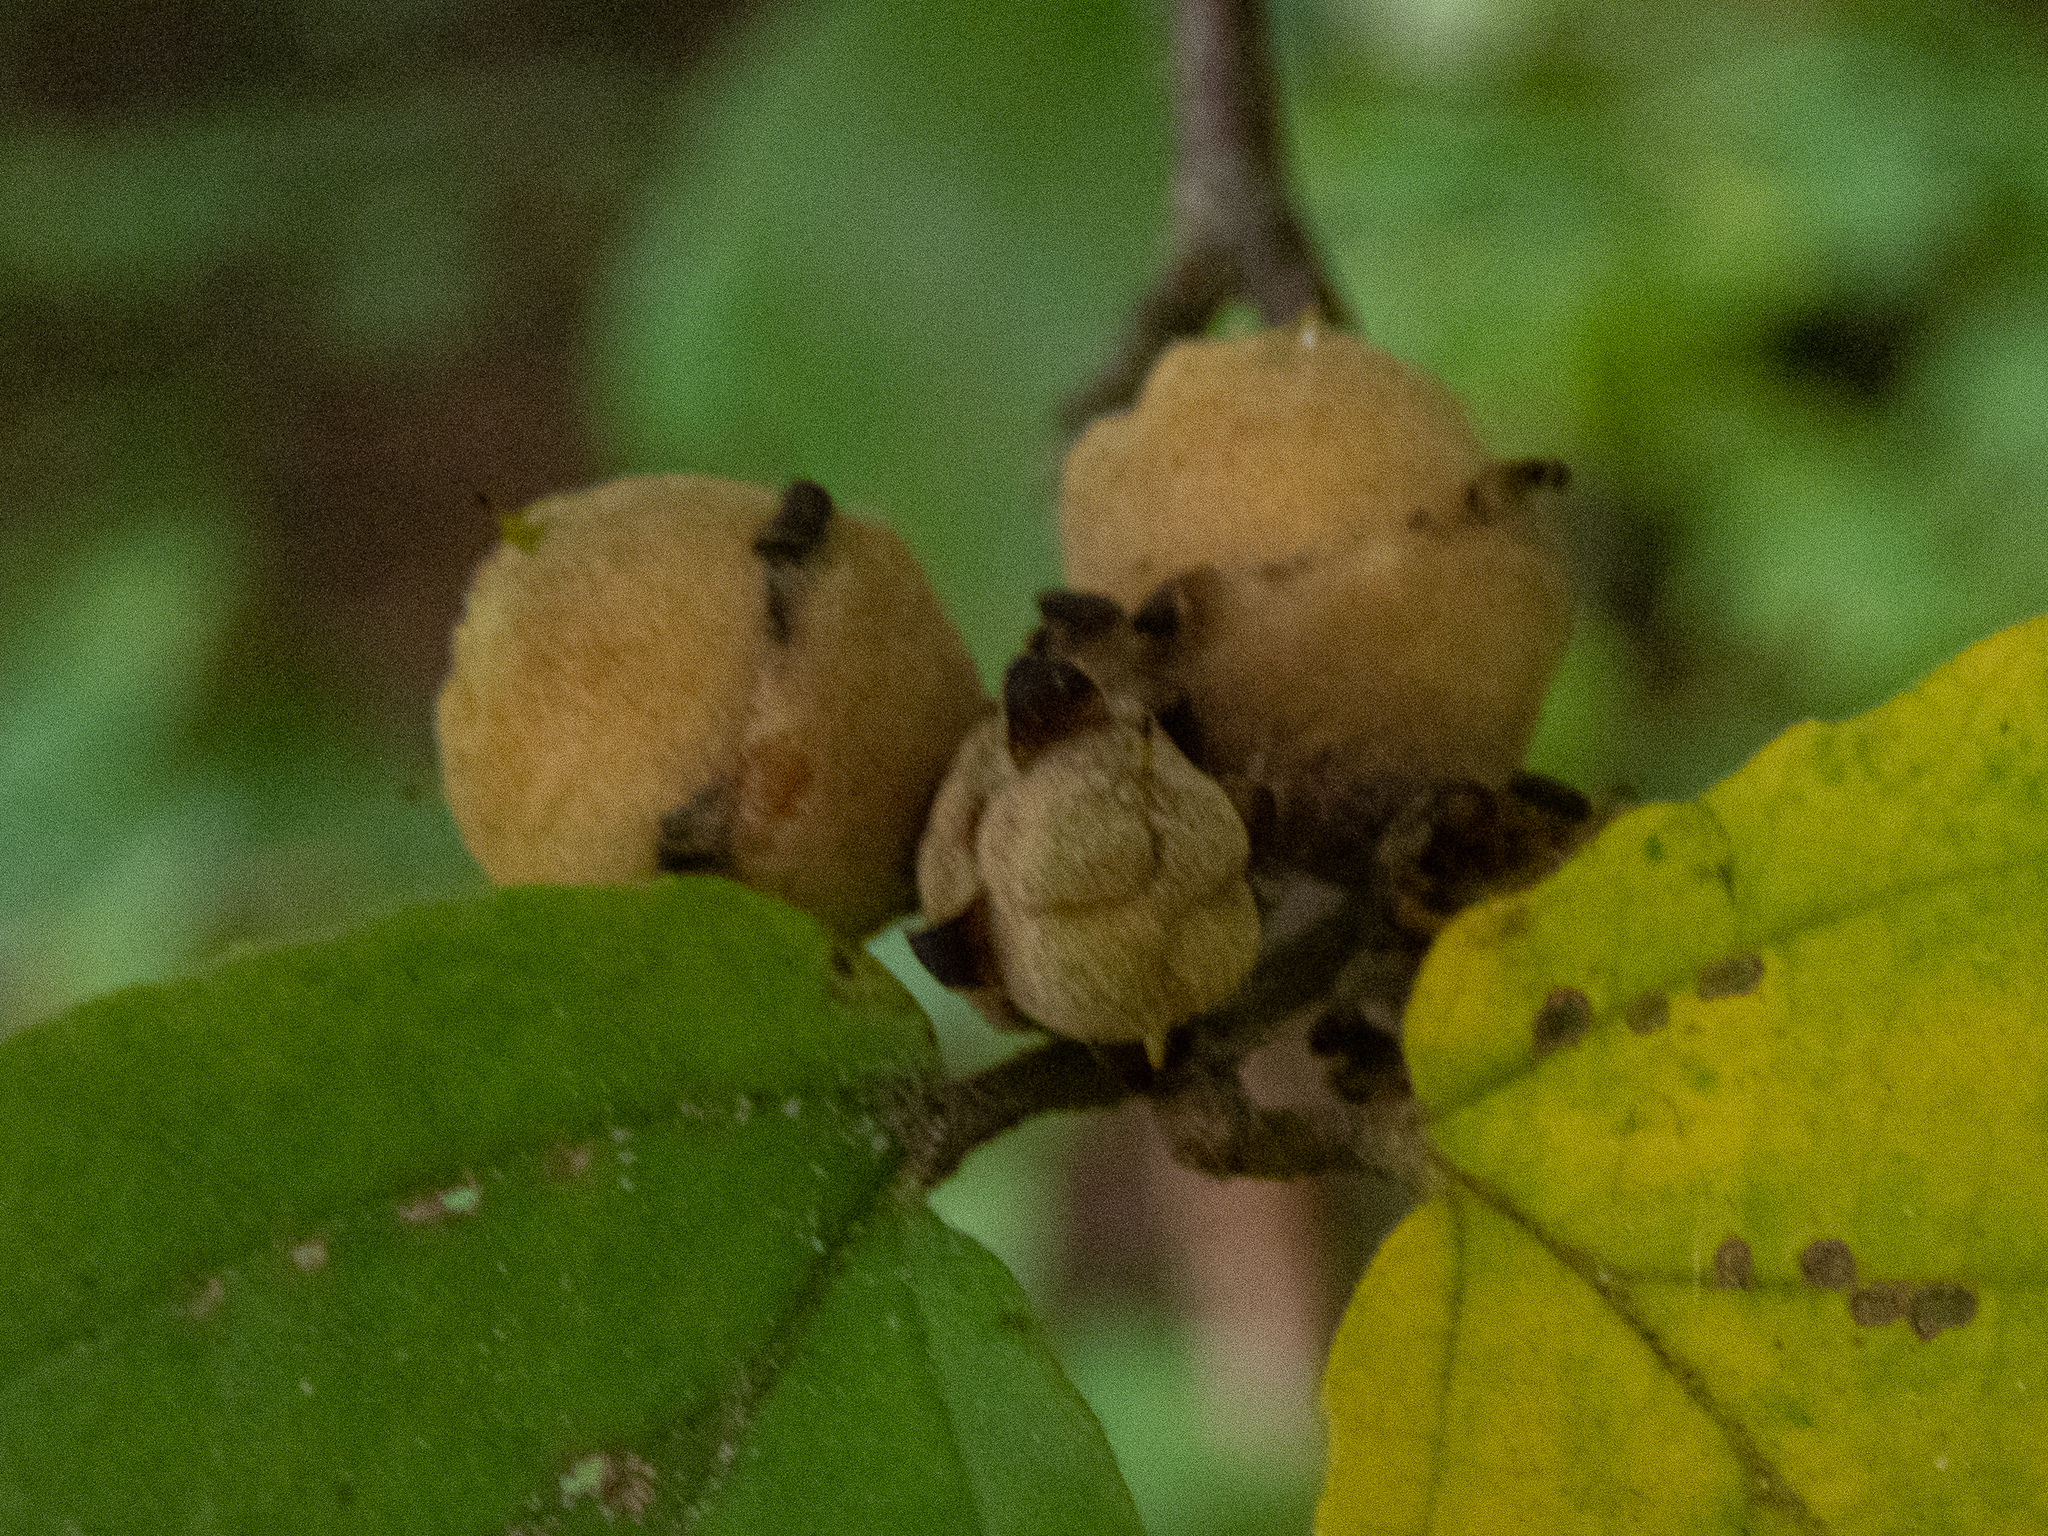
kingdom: Plantae
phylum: Tracheophyta
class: Magnoliopsida
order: Saxifragales
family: Hamamelidaceae
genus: Hamamelis
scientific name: Hamamelis virginiana
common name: Witch-hazel
